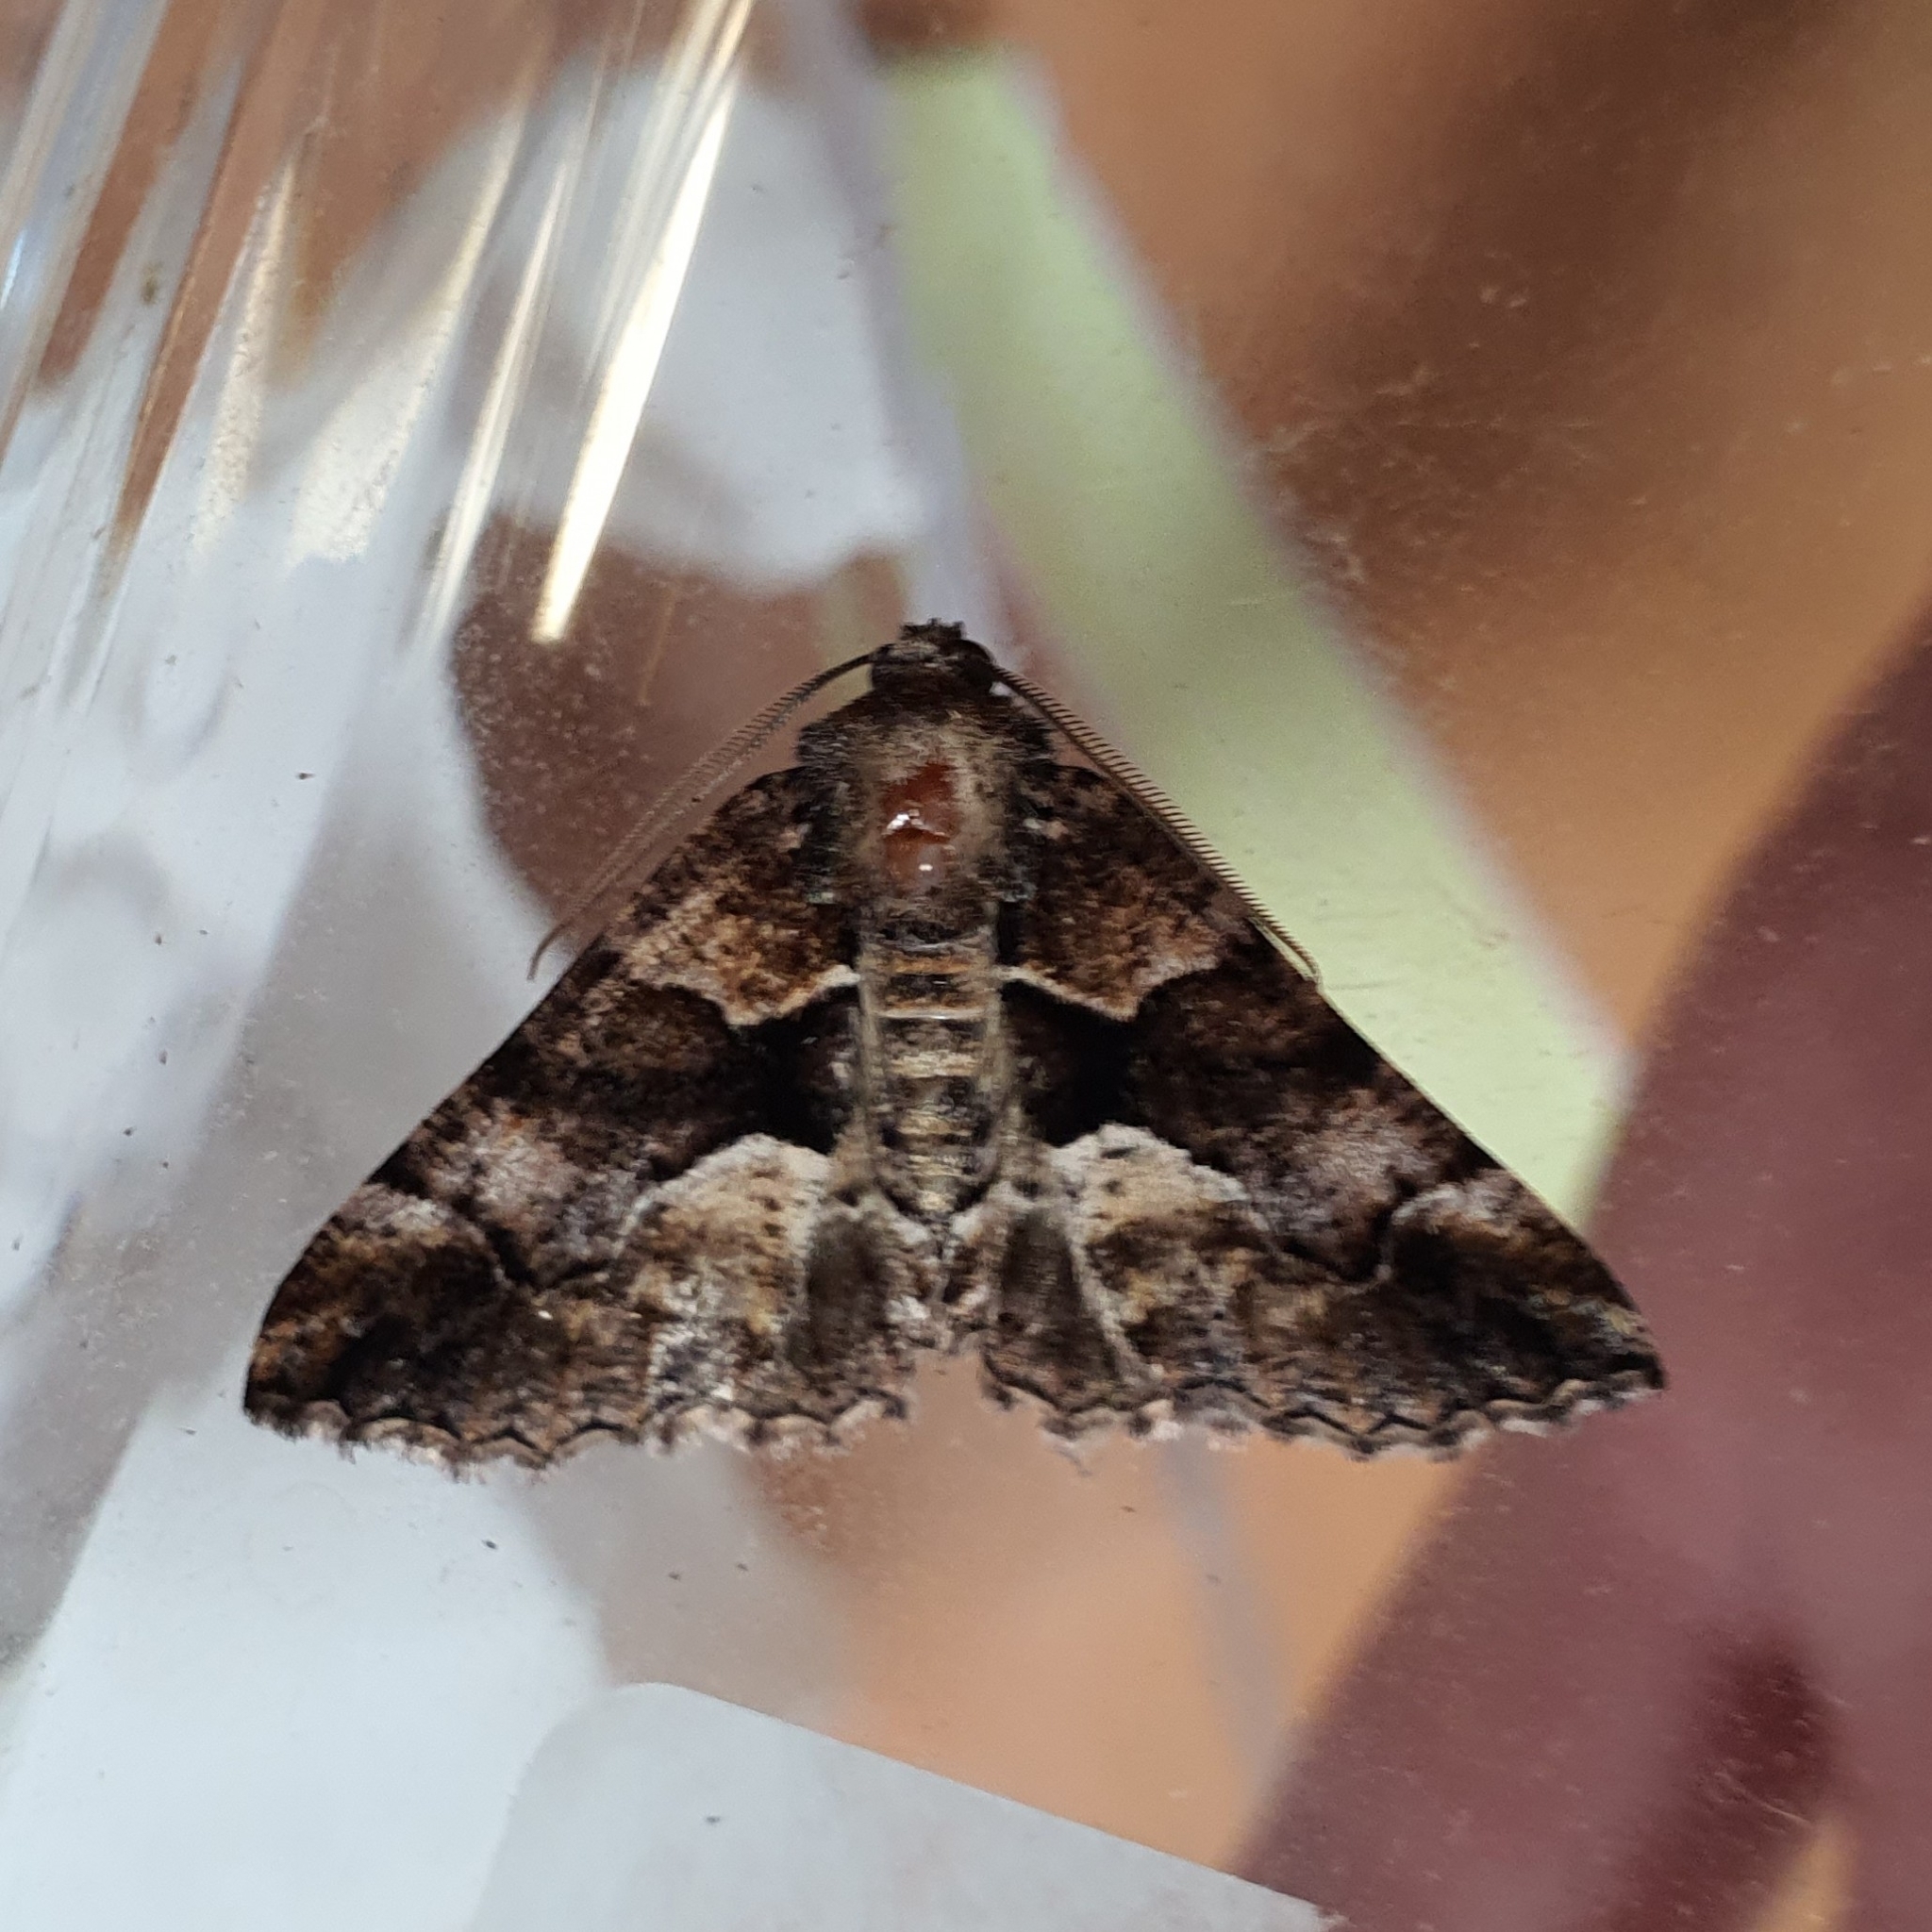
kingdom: Animalia
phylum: Arthropoda
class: Insecta
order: Lepidoptera
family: Geometridae
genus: Gastrina
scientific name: Gastrina cristaria
